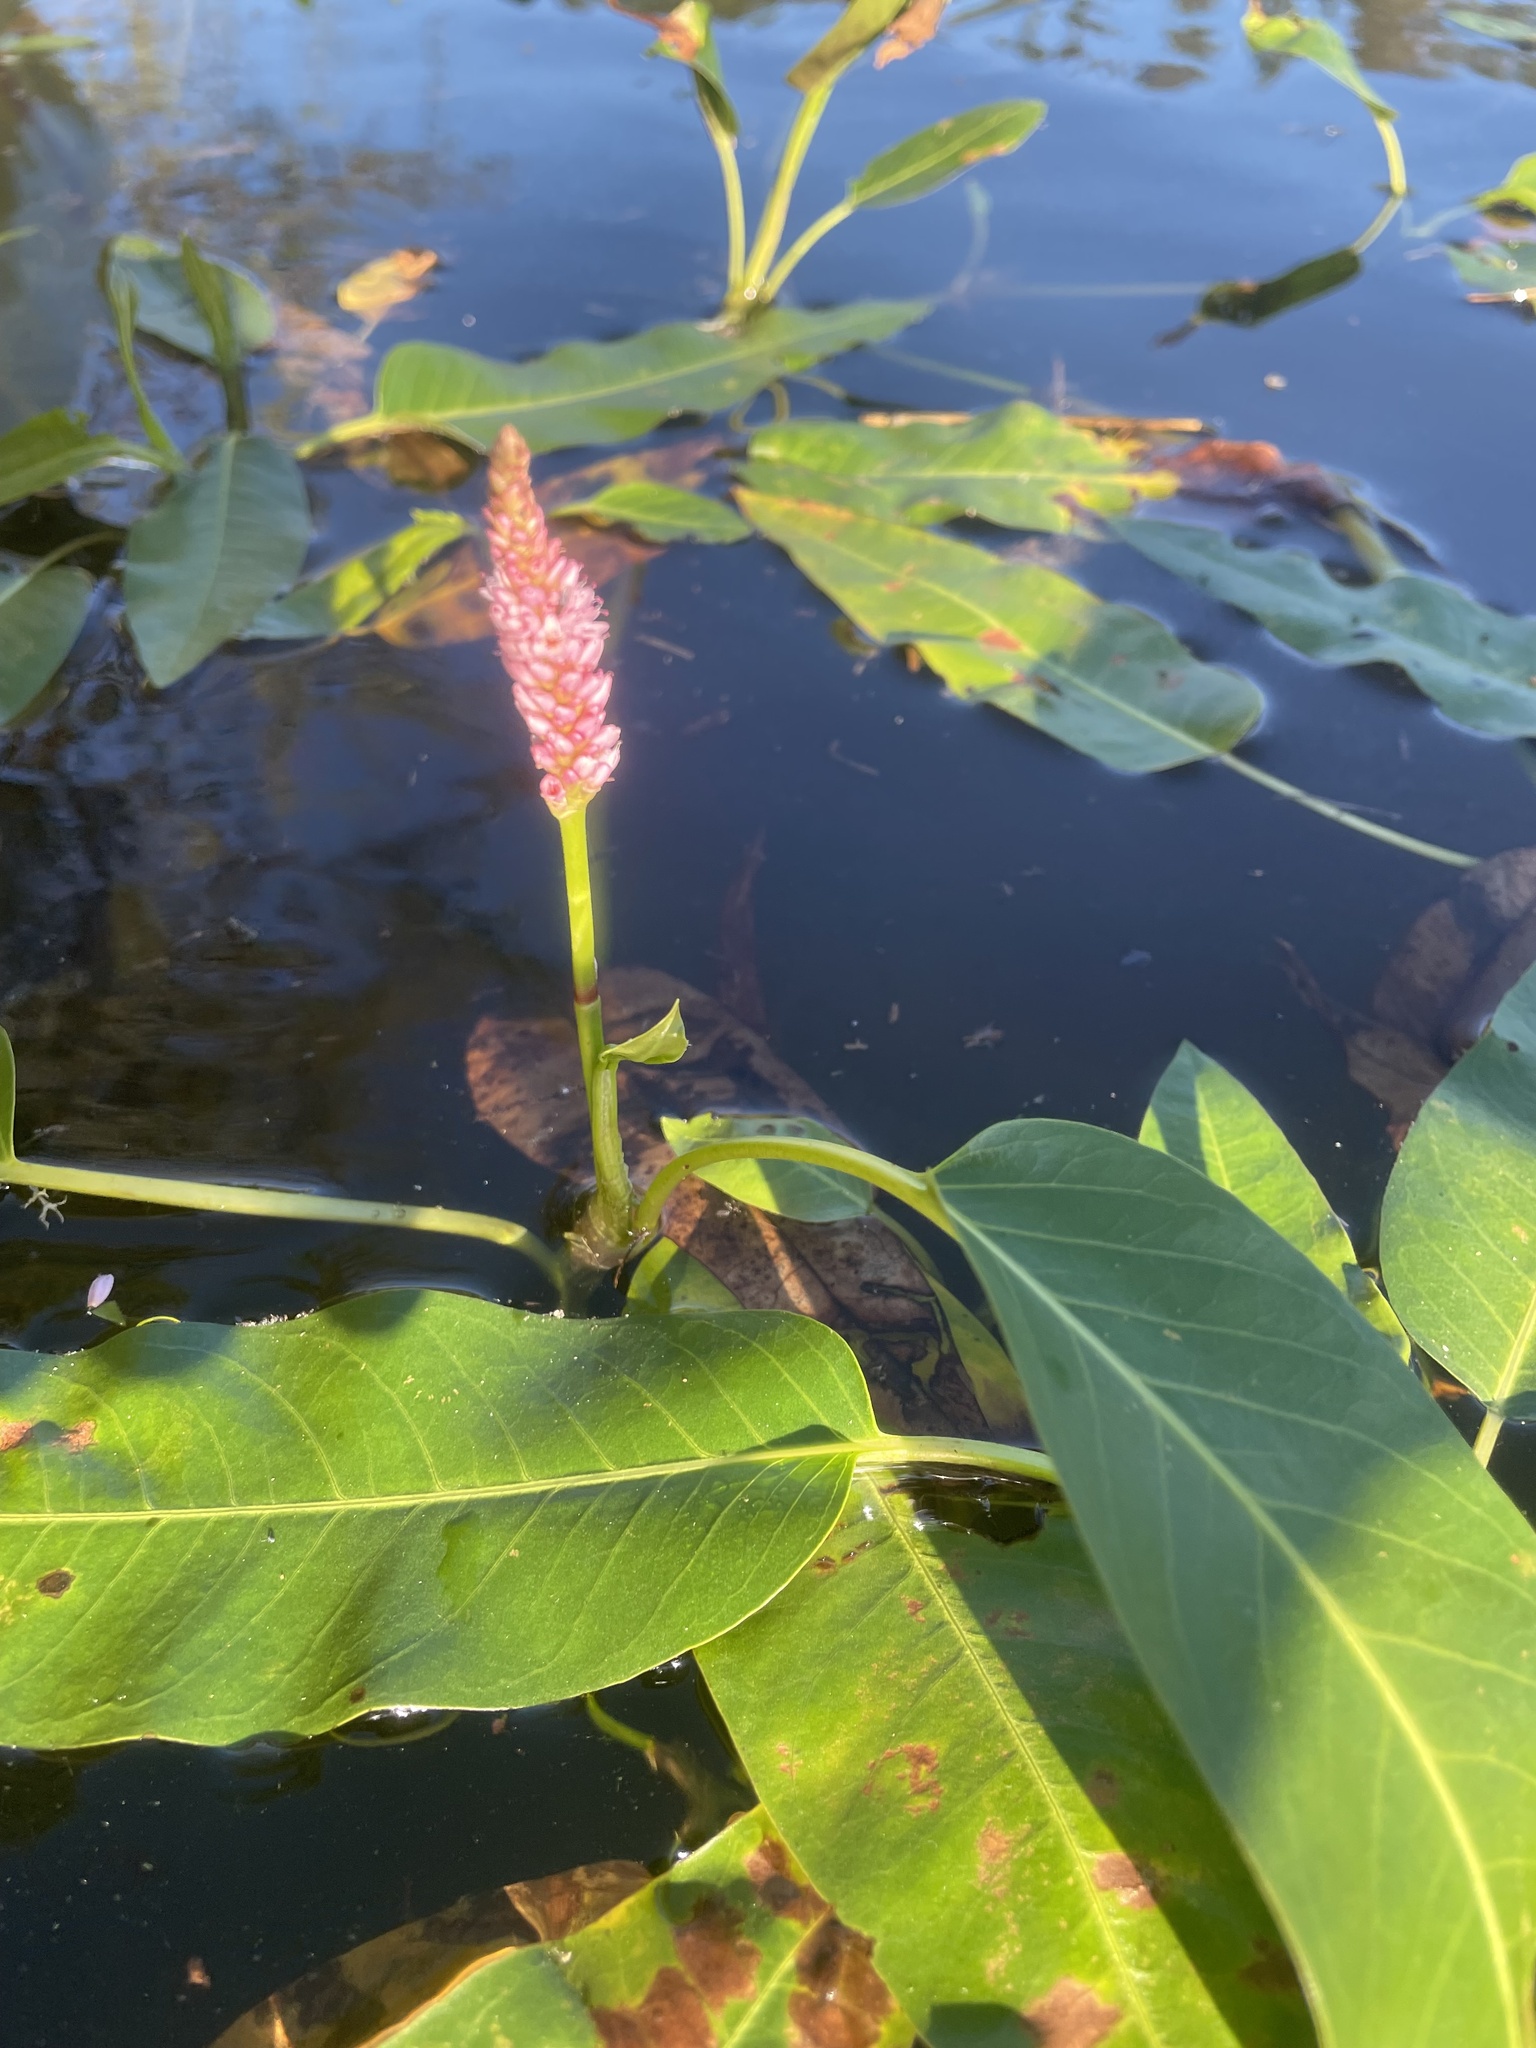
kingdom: Plantae
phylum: Tracheophyta
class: Magnoliopsida
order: Caryophyllales
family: Polygonaceae
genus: Persicaria
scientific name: Persicaria amphibia
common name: Amphibious bistort
